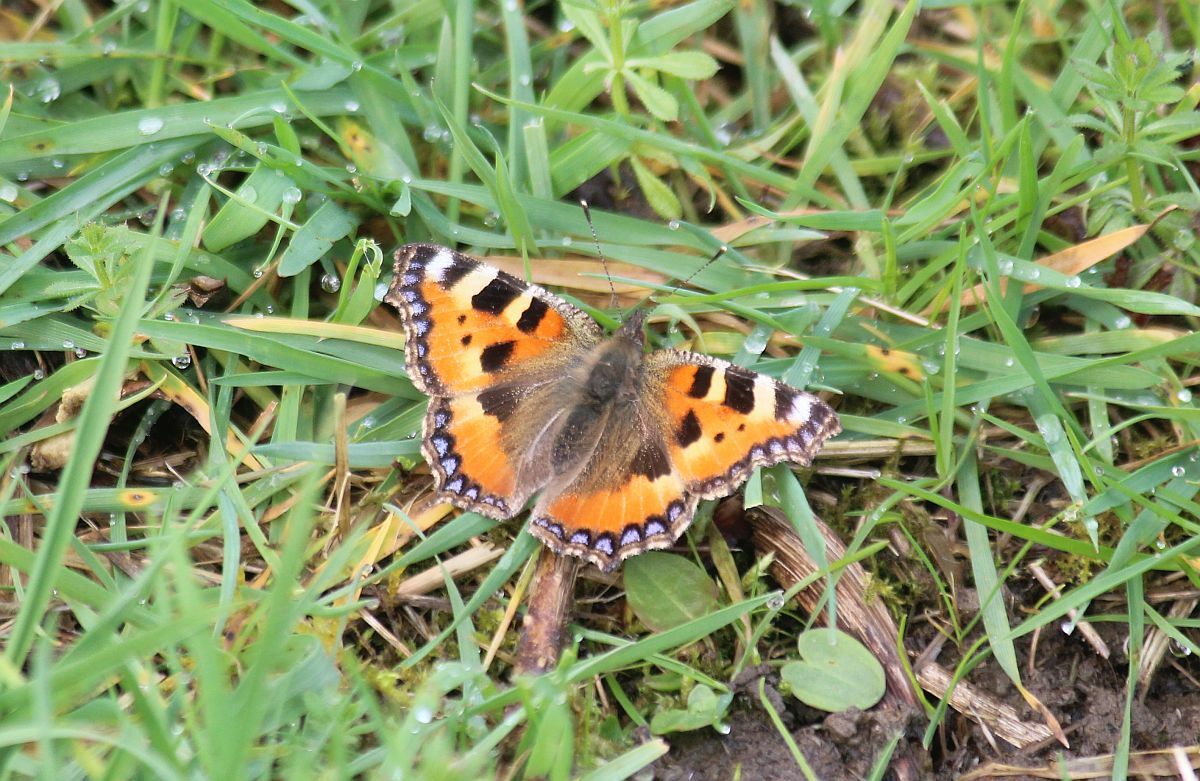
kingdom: Animalia
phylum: Arthropoda
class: Insecta
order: Lepidoptera
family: Nymphalidae
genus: Aglais
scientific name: Aglais urticae
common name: Small tortoiseshell
